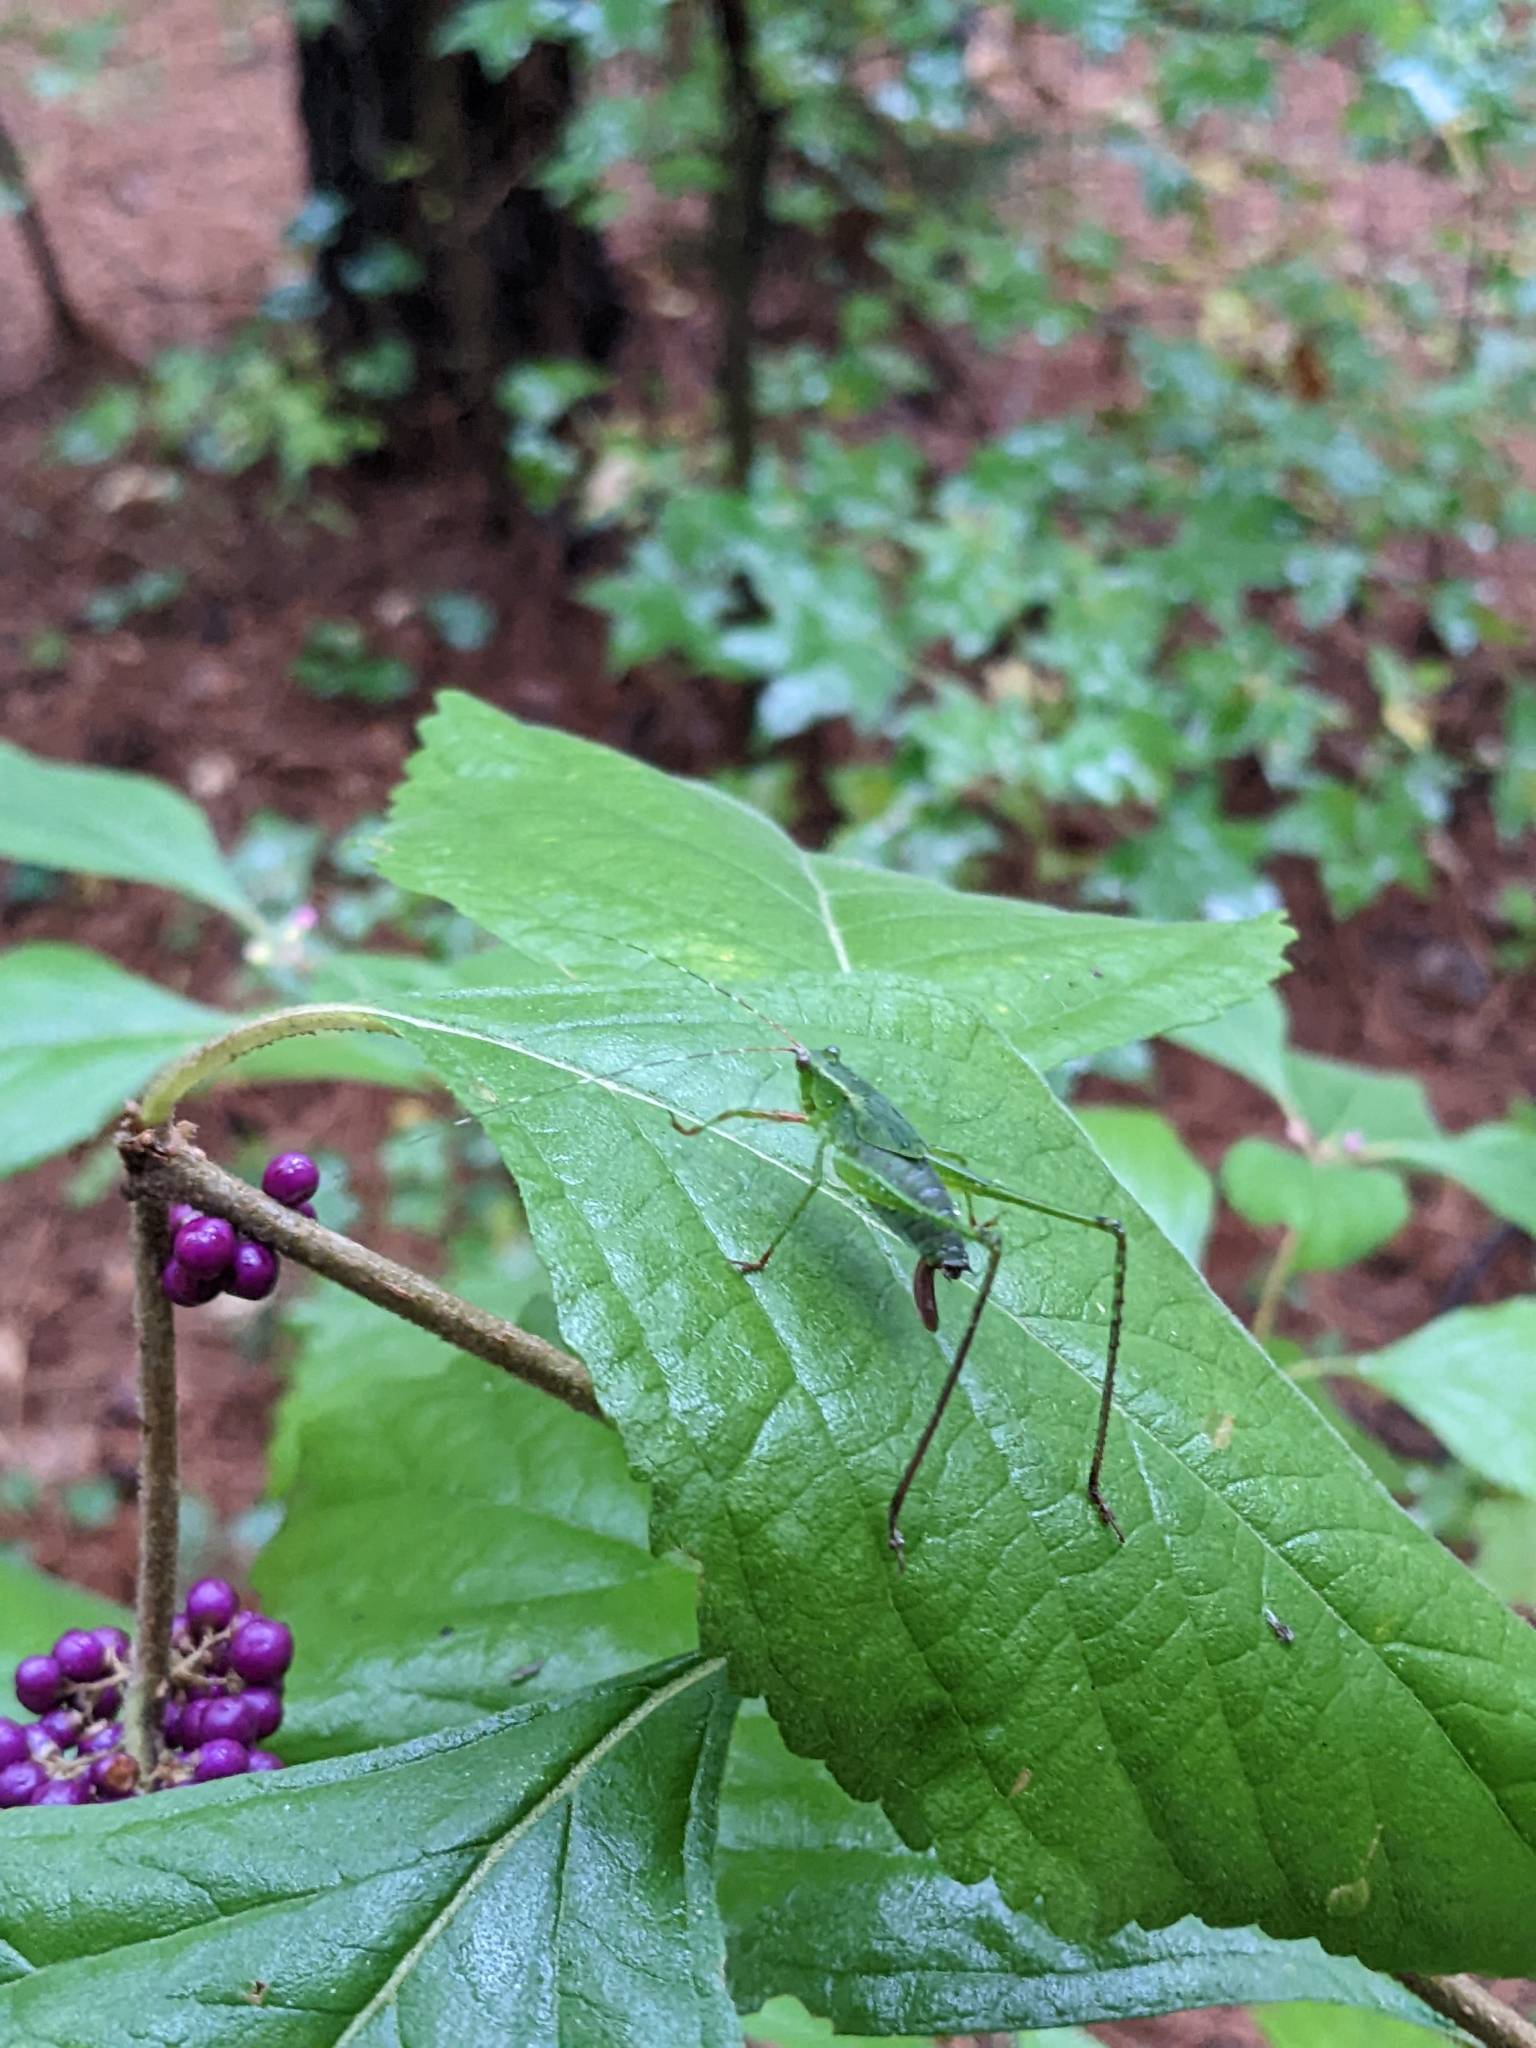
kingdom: Plantae
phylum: Tracheophyta
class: Magnoliopsida
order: Lamiales
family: Lamiaceae
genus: Callicarpa
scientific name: Callicarpa americana
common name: American beautyberry
